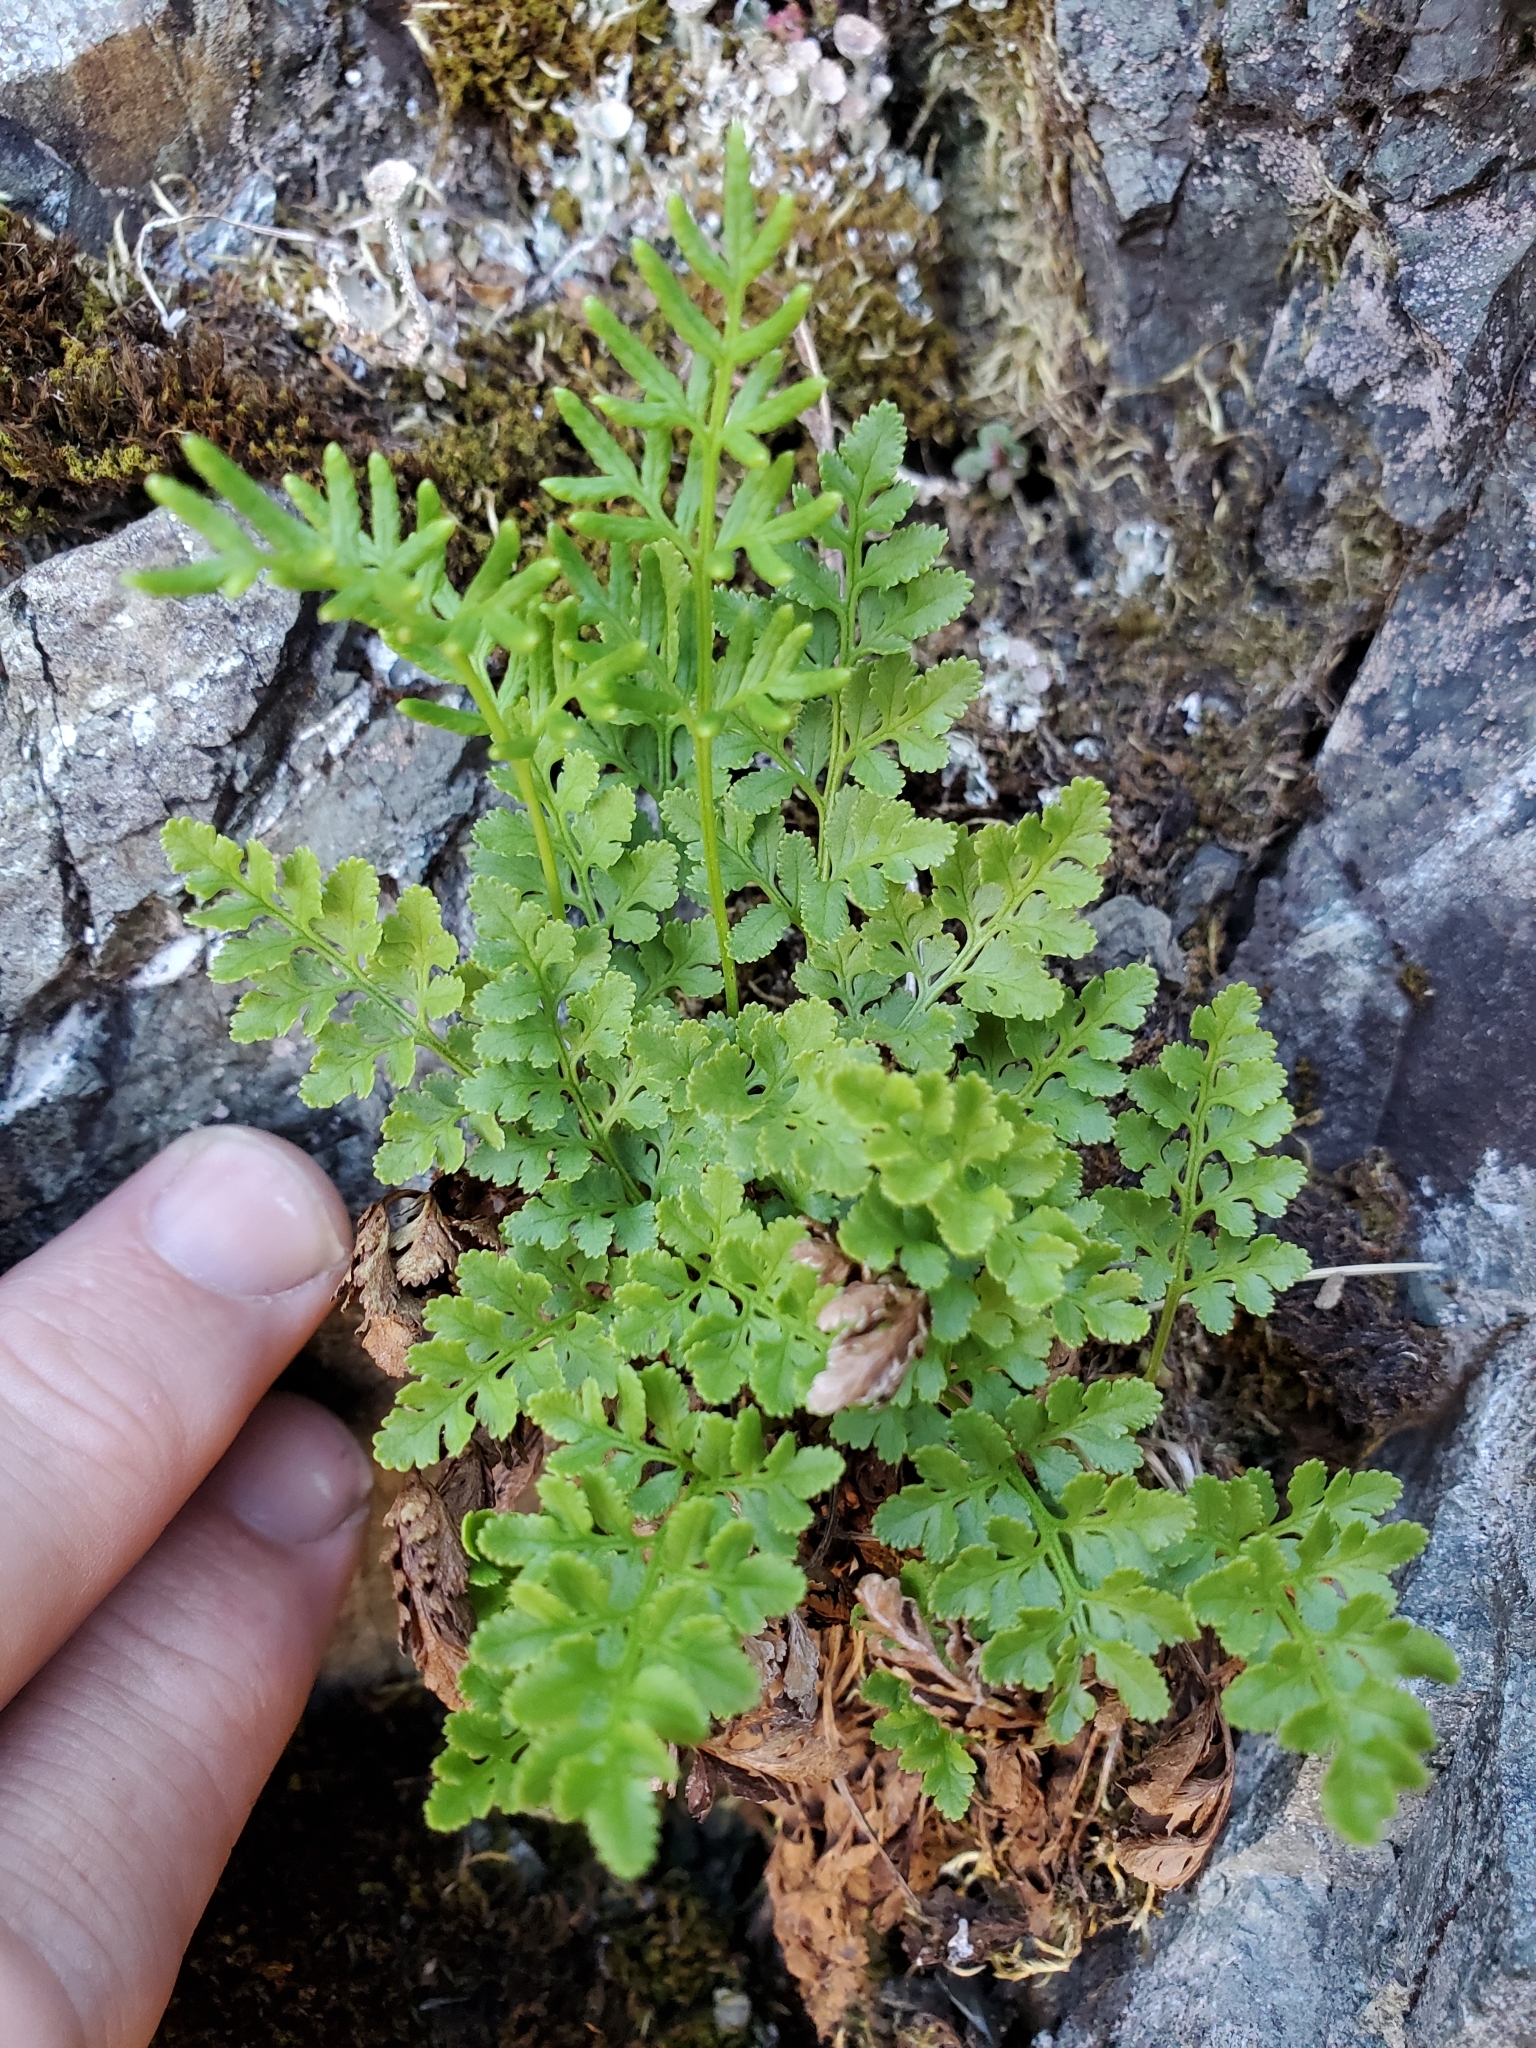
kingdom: Plantae
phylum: Tracheophyta
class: Polypodiopsida
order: Polypodiales
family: Pteridaceae
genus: Cryptogramma
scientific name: Cryptogramma acrostichoides
